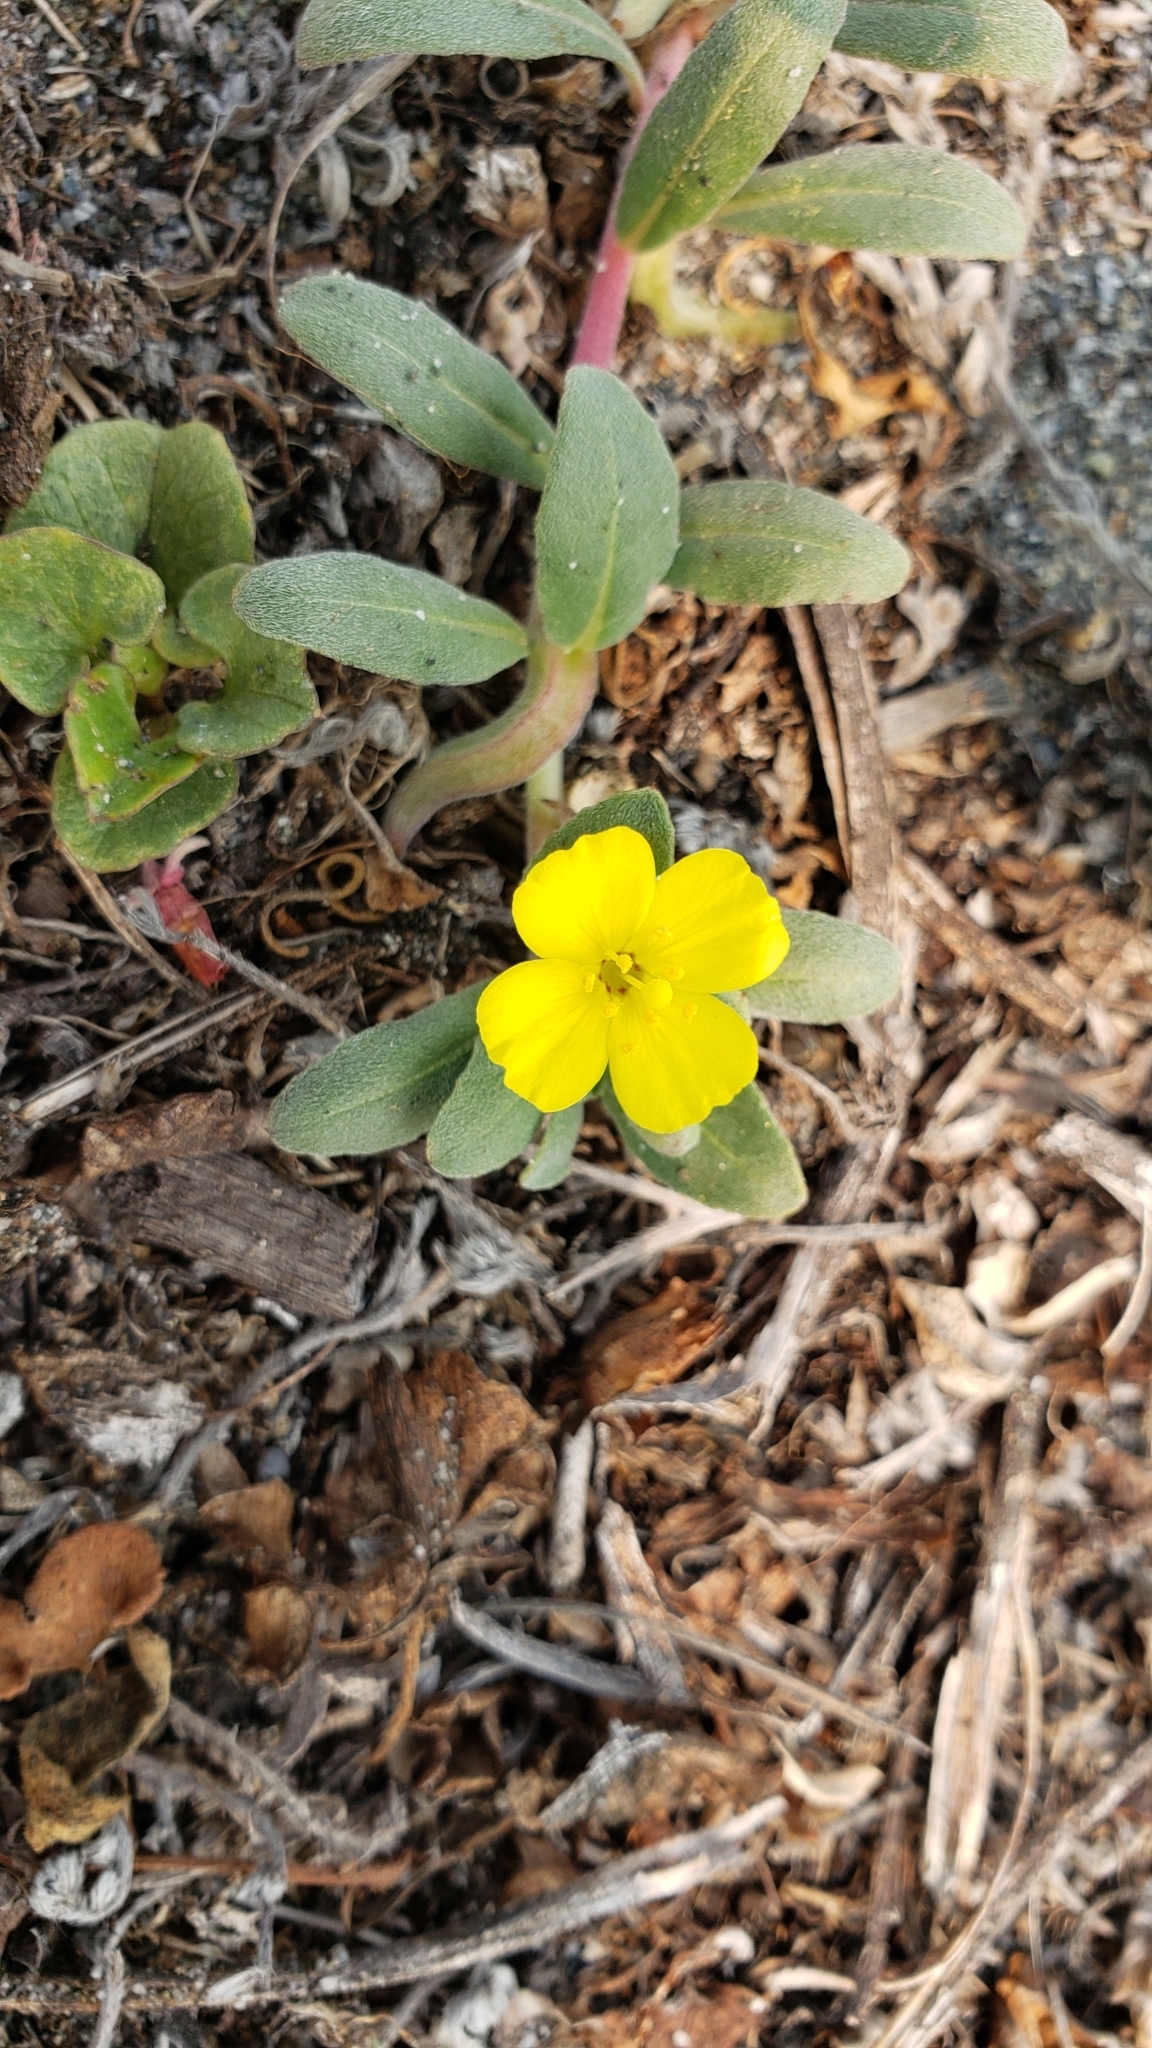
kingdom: Plantae
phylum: Tracheophyta
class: Magnoliopsida
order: Myrtales
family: Onagraceae
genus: Camissoniopsis
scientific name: Camissoniopsis cheiranthifolia
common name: Beach suncup
